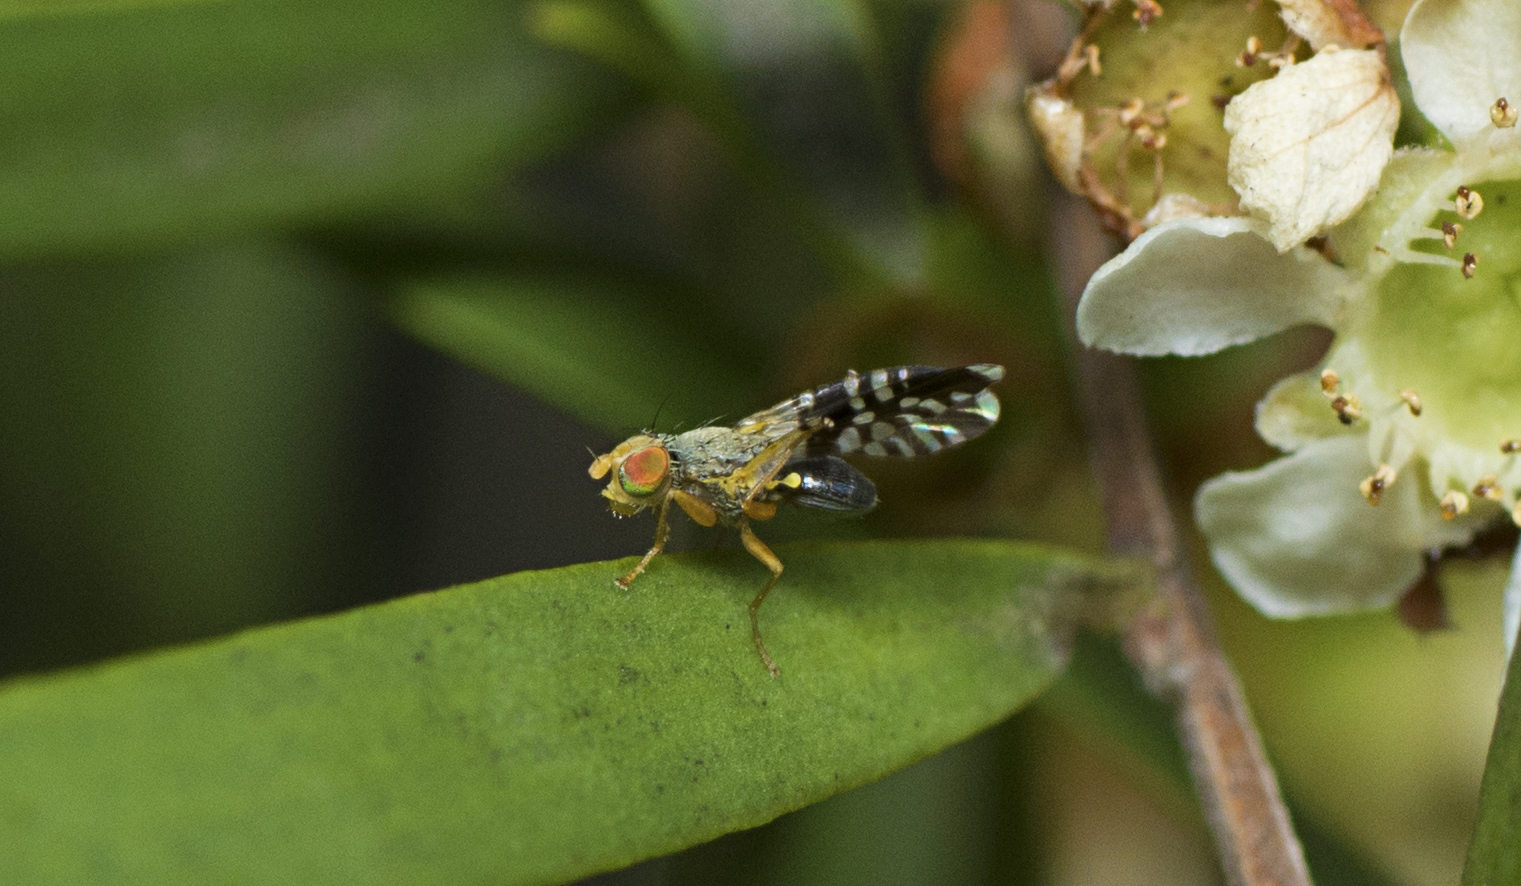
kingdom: Animalia
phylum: Arthropoda
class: Insecta
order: Diptera
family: Tephritidae
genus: Spathulina
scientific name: Spathulina acroleuca
